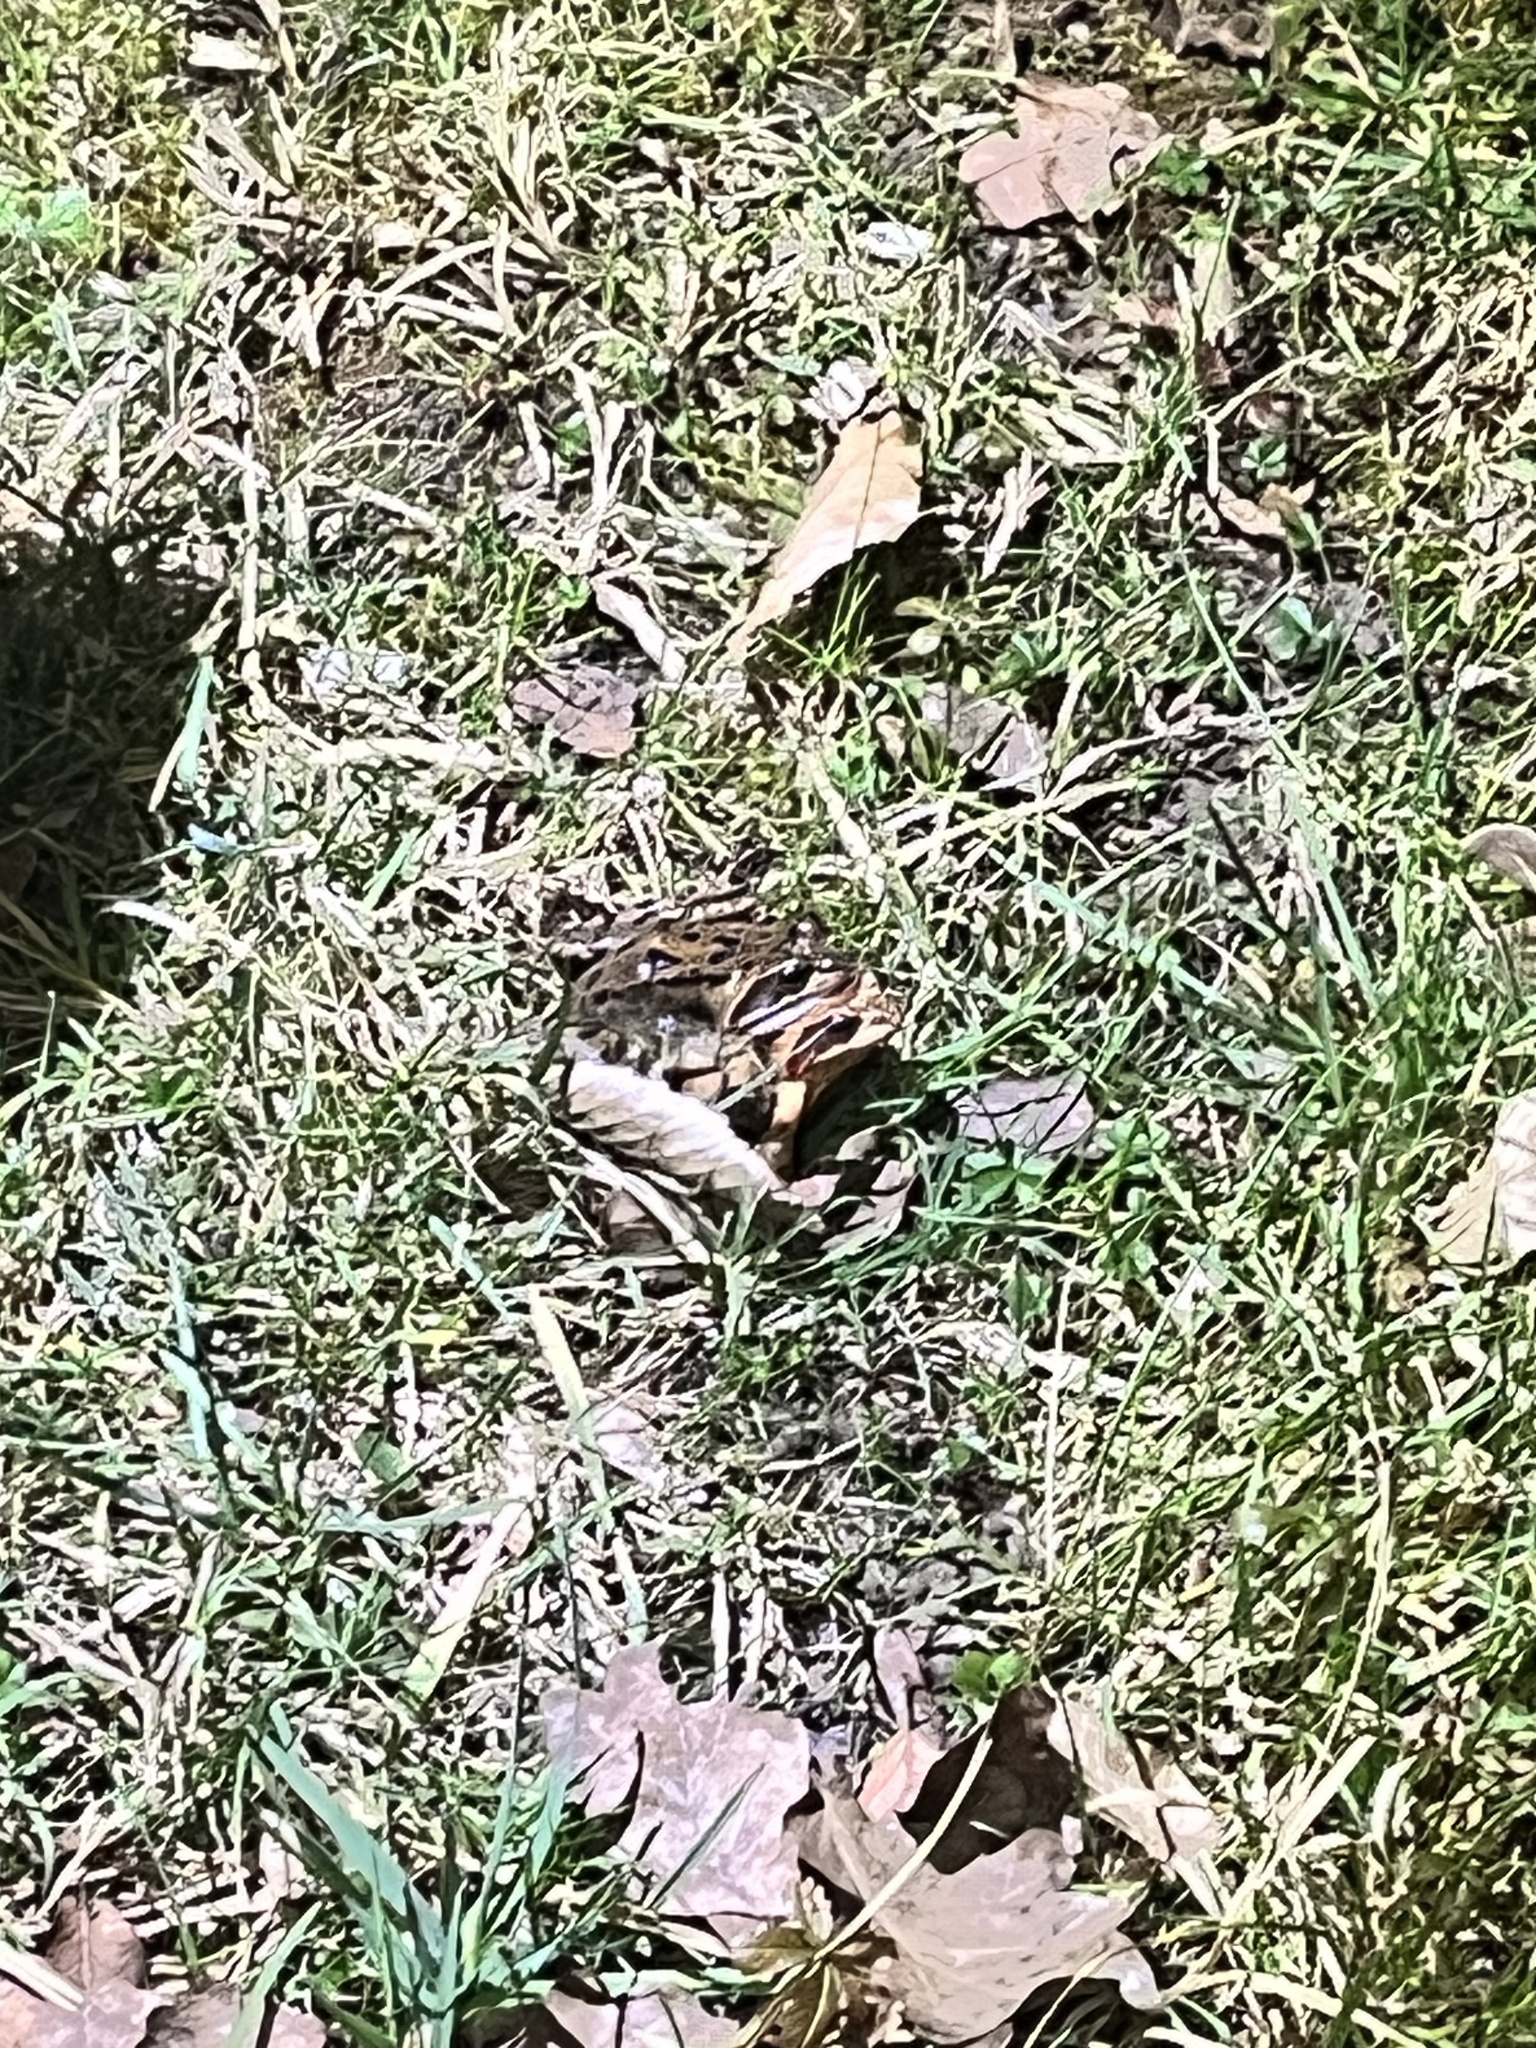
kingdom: Animalia
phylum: Chordata
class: Amphibia
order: Anura
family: Ranidae
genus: Rana
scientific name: Rana temporaria
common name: Common frog
